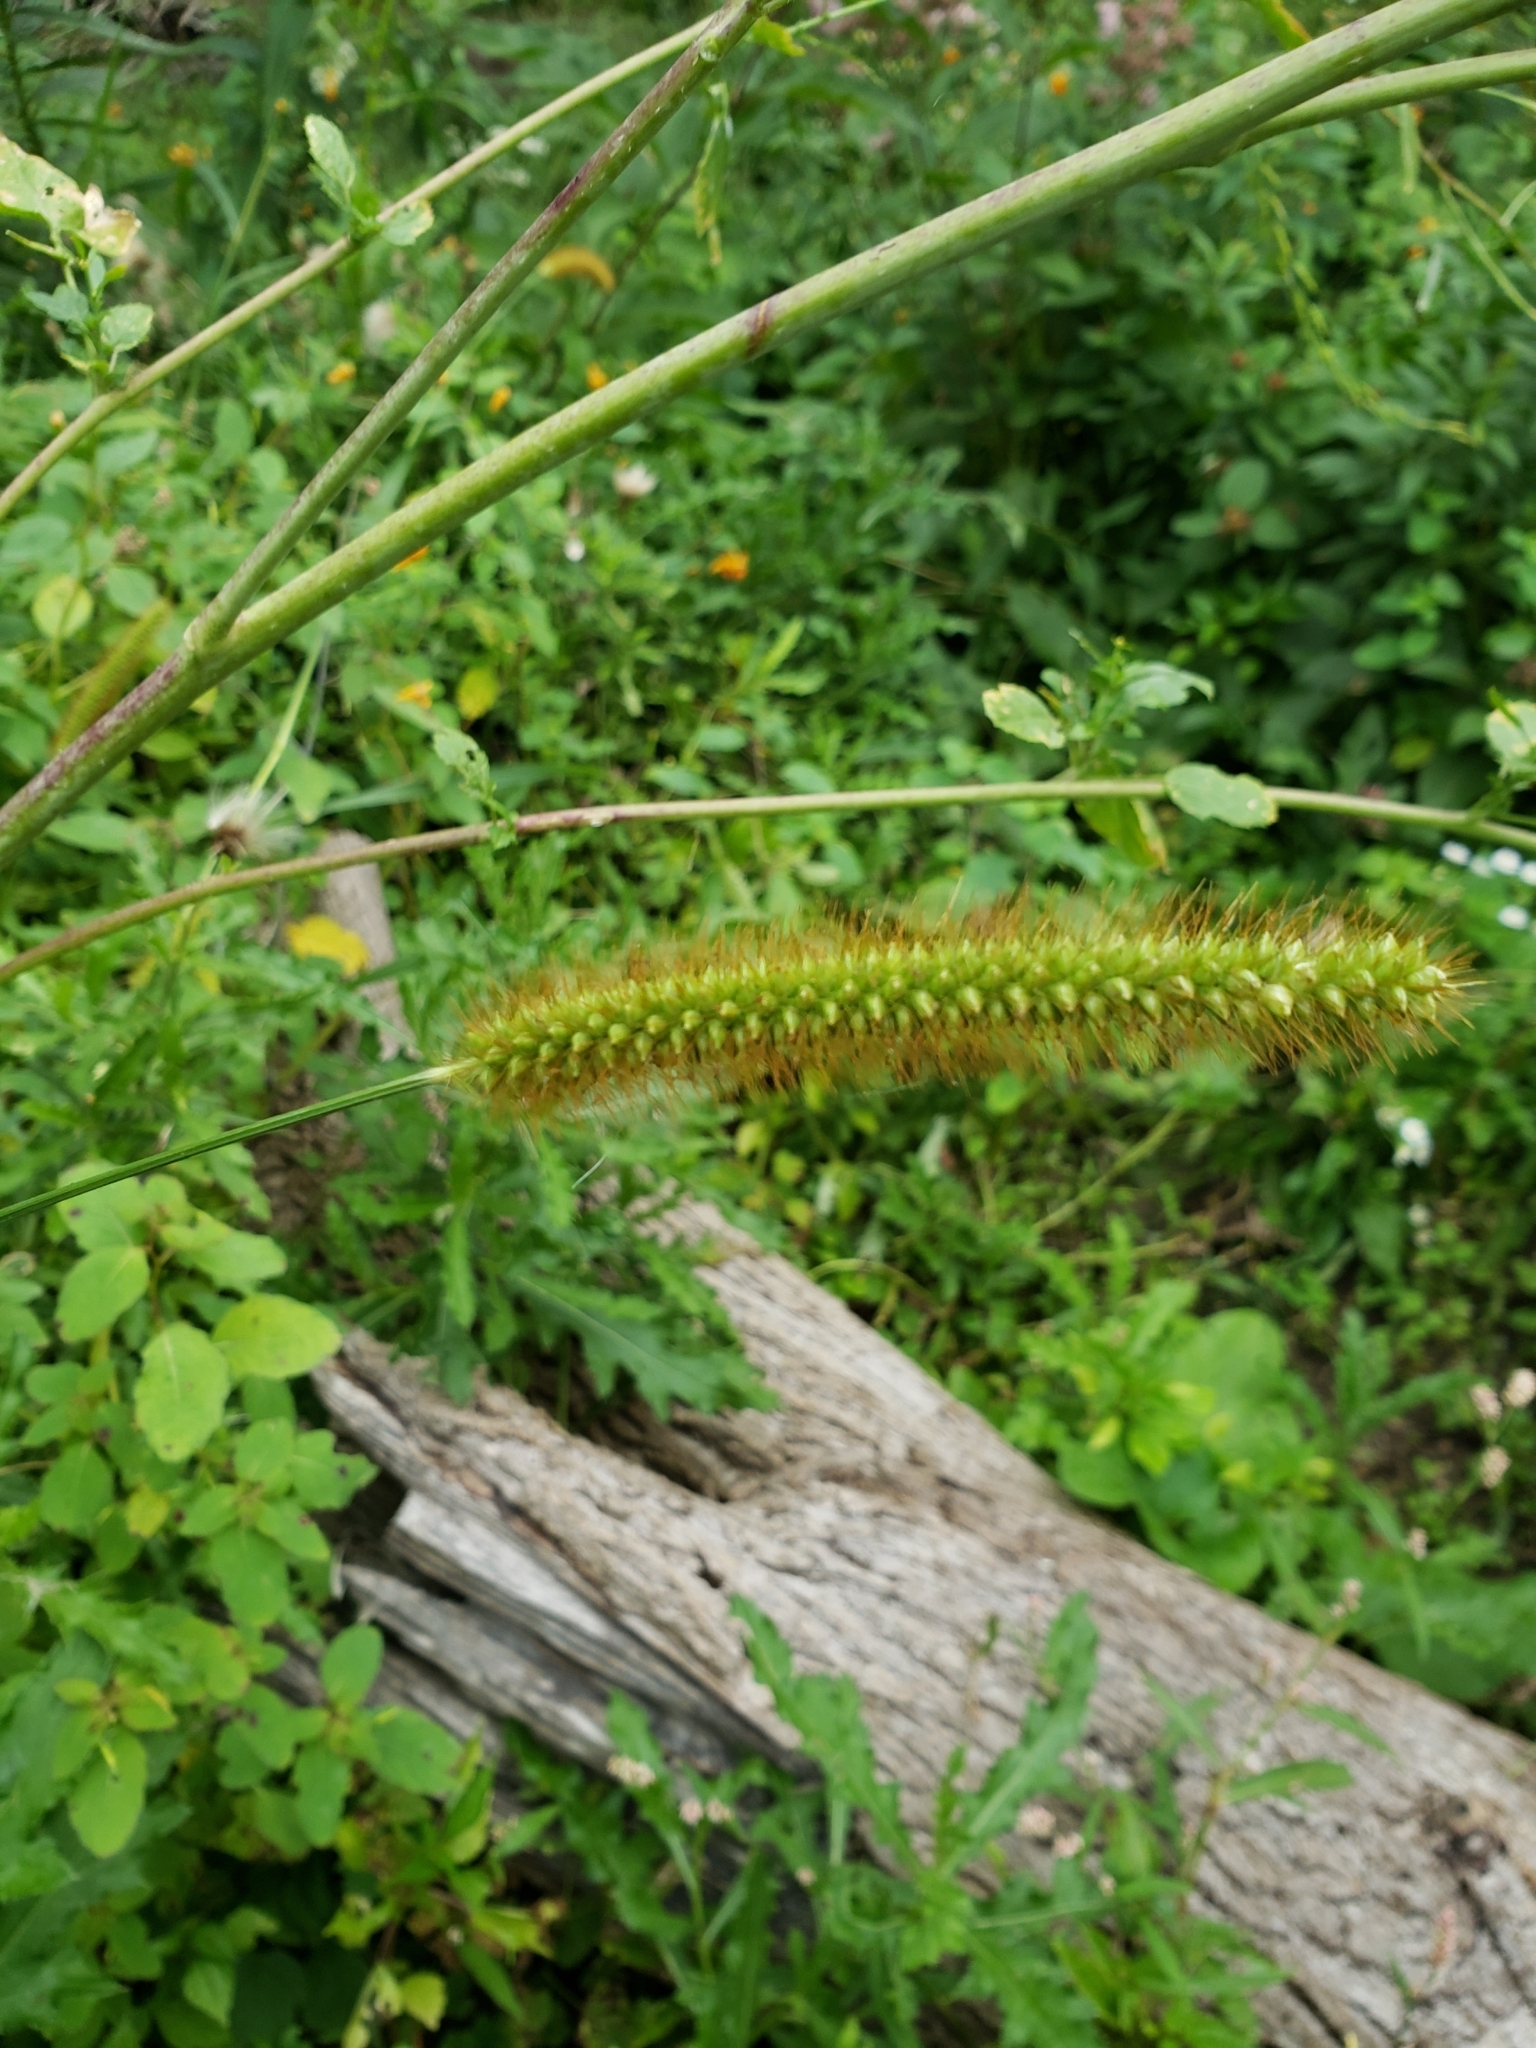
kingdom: Plantae
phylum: Tracheophyta
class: Liliopsida
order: Poales
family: Poaceae
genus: Setaria
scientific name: Setaria pumila
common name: Yellow bristle-grass
